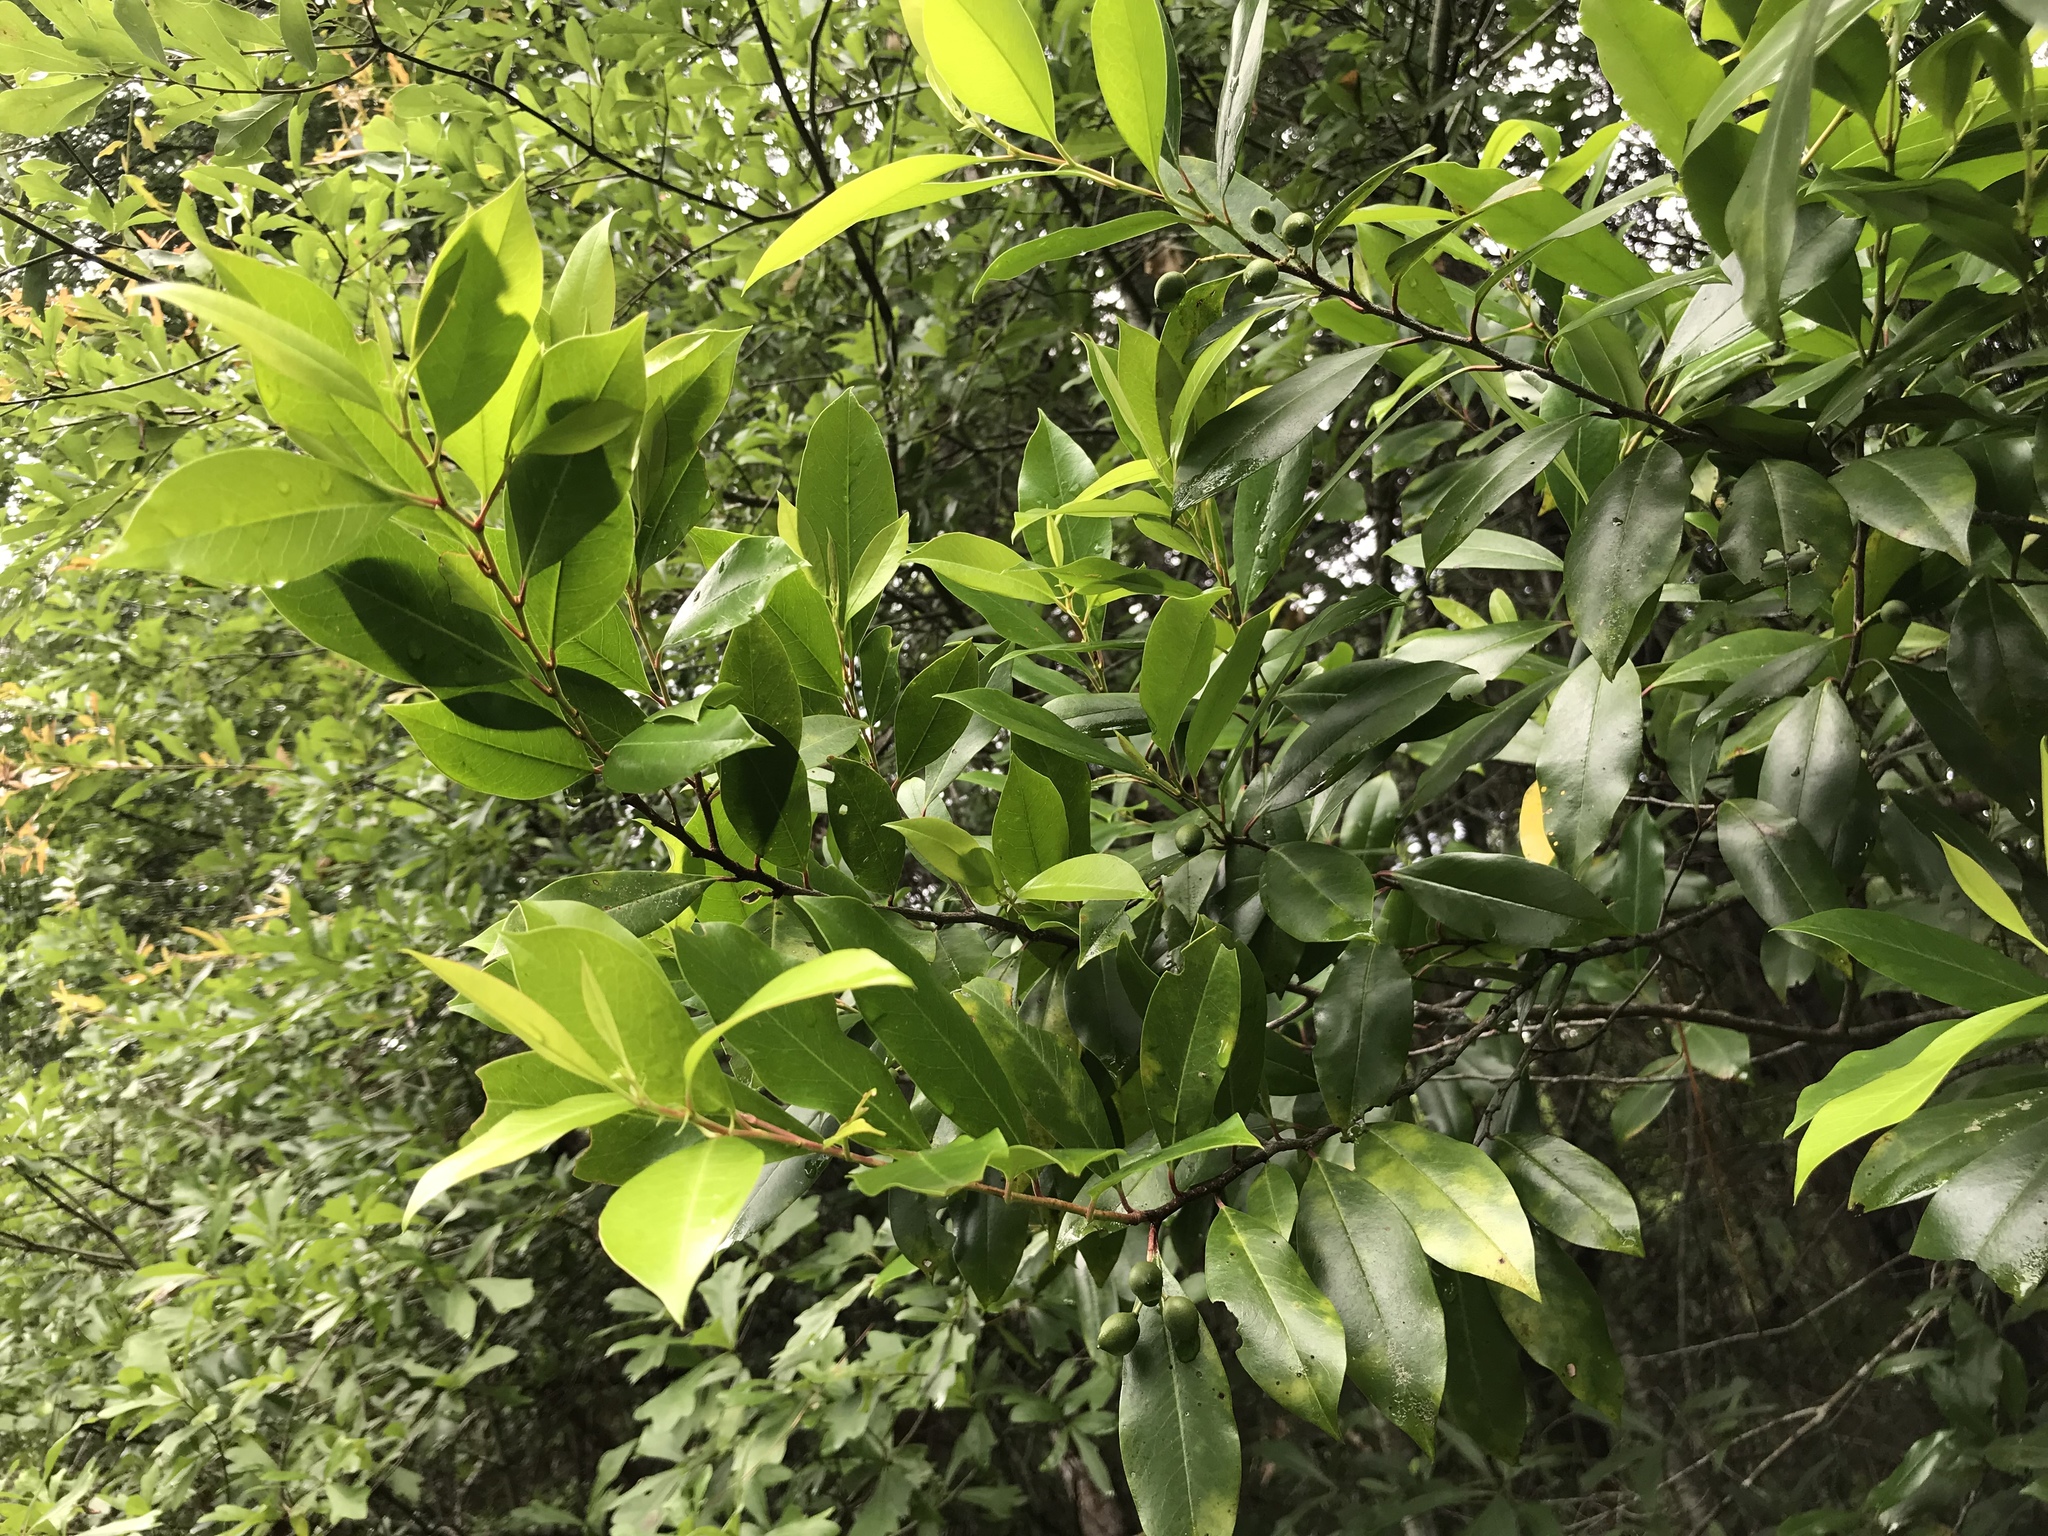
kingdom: Plantae
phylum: Tracheophyta
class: Magnoliopsida
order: Rosales
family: Rosaceae
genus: Prunus
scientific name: Prunus caroliniana
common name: Carolina laurel cherry
